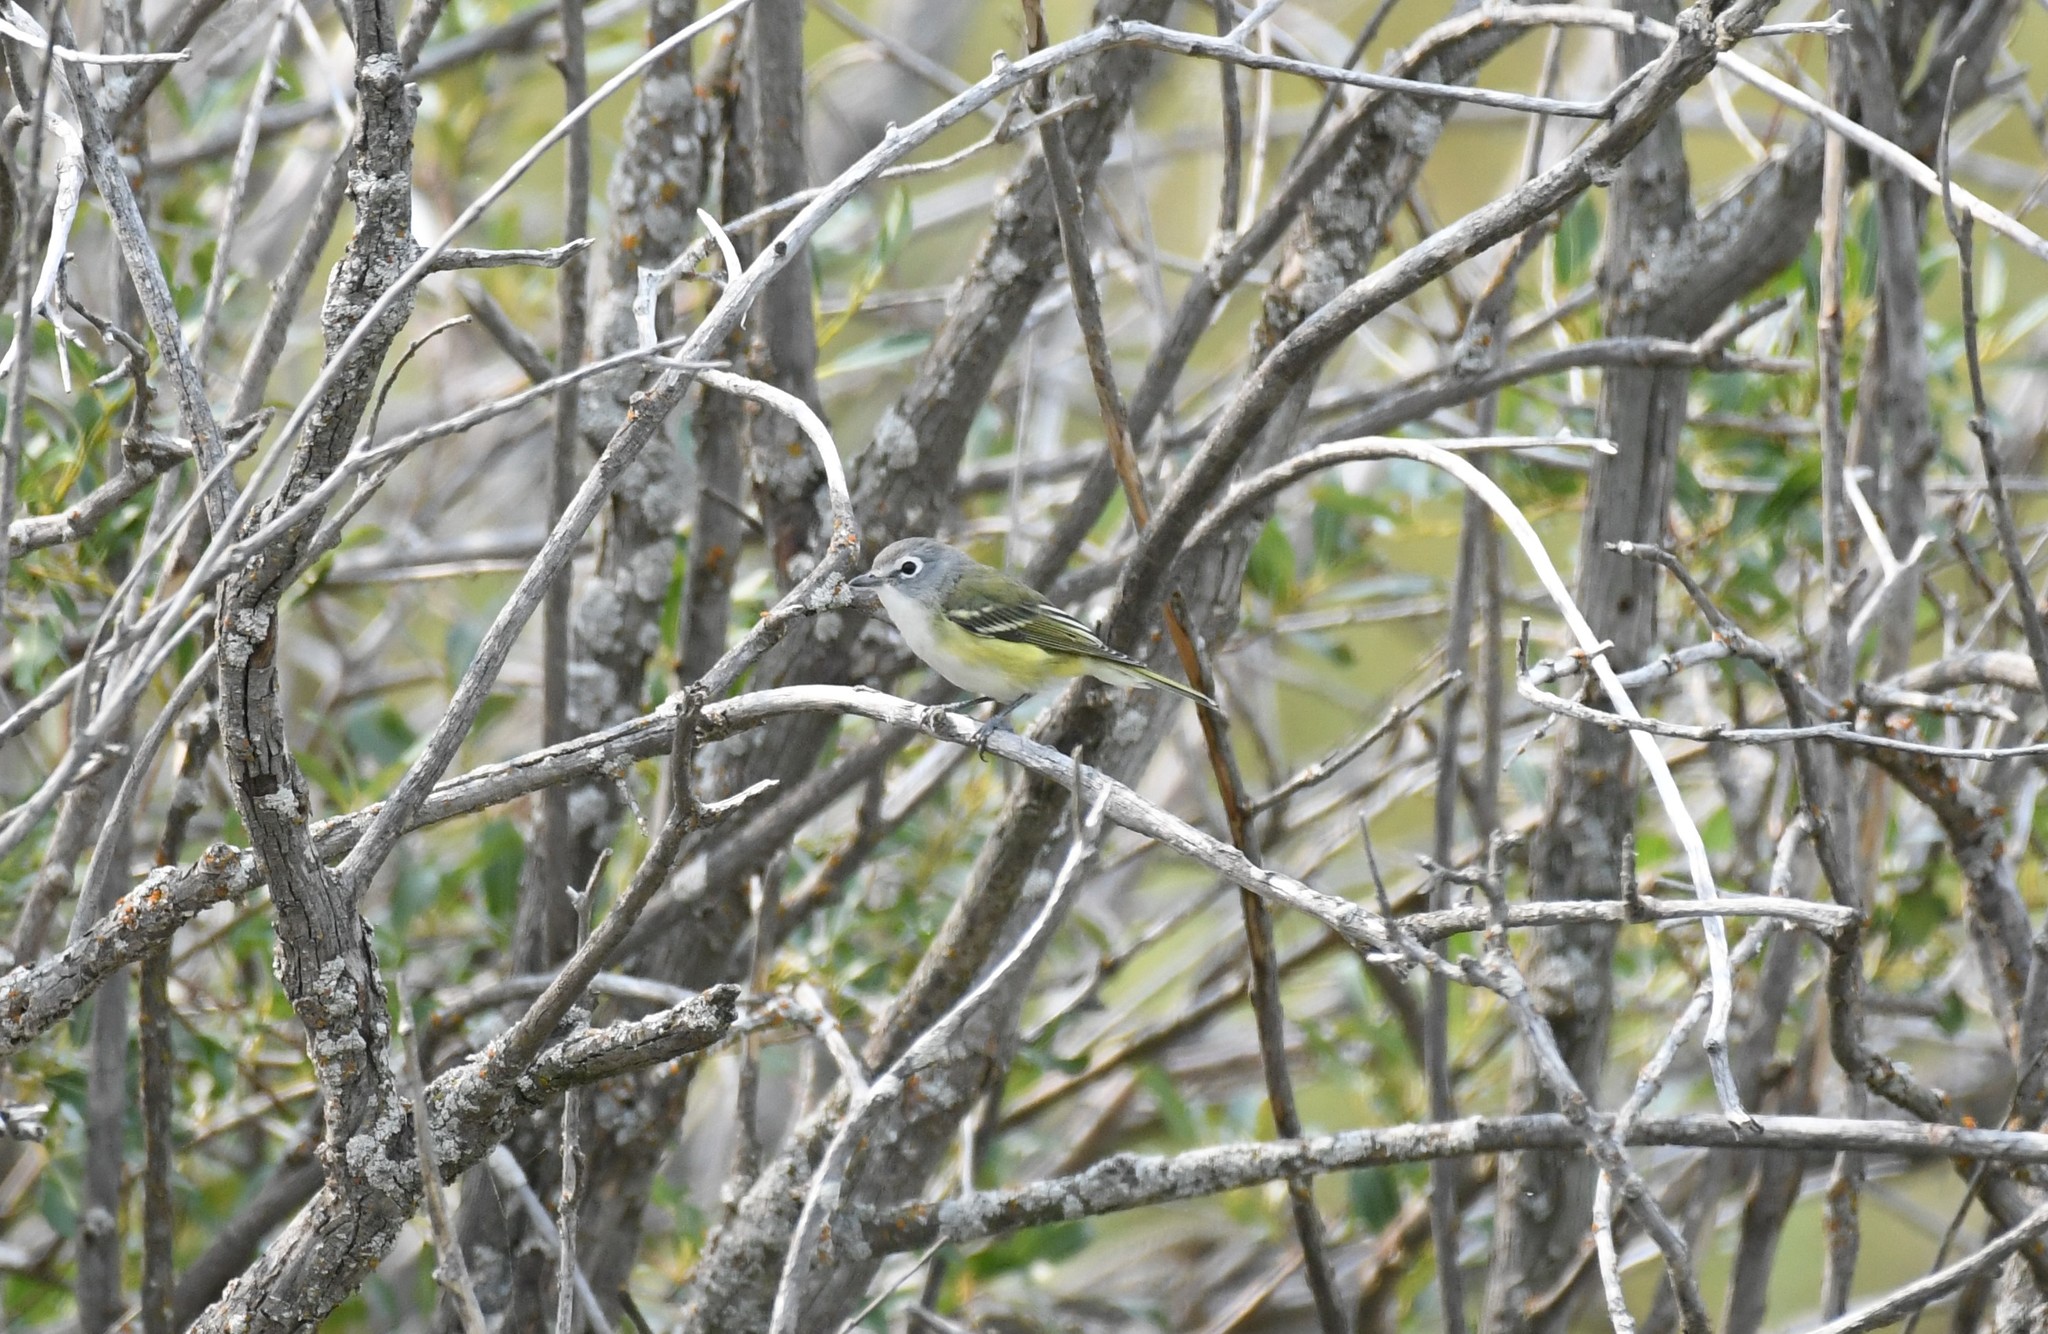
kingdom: Animalia
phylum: Chordata
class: Aves
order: Passeriformes
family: Vireonidae
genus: Vireo
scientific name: Vireo solitarius
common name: Blue-headed vireo
